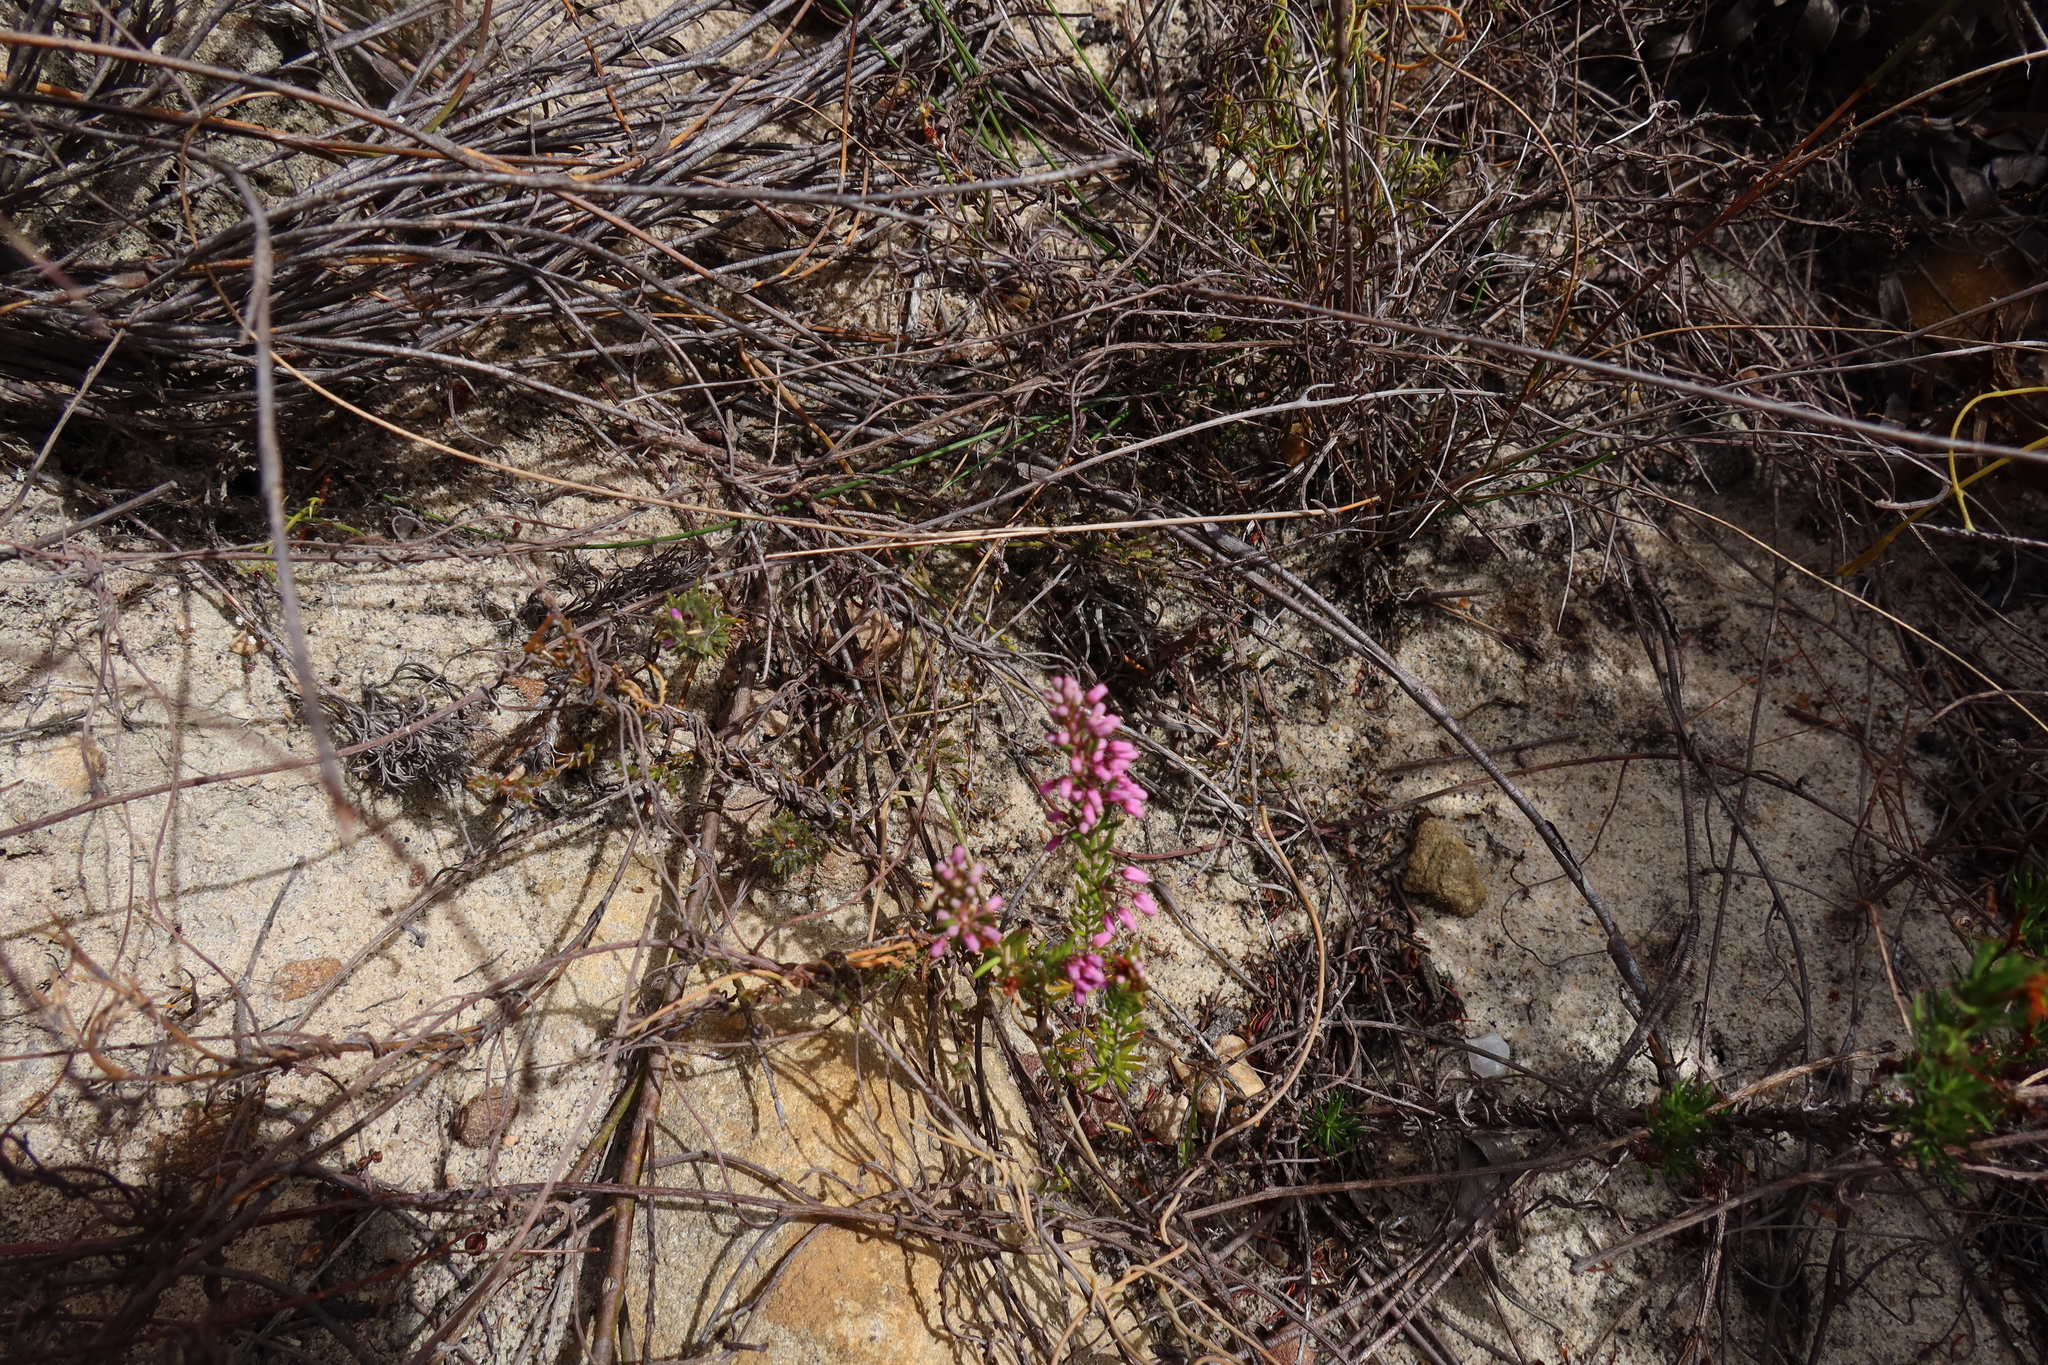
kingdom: Plantae
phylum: Tracheophyta
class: Magnoliopsida
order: Ericales
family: Ericaceae
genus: Erica
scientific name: Erica nudiflora
